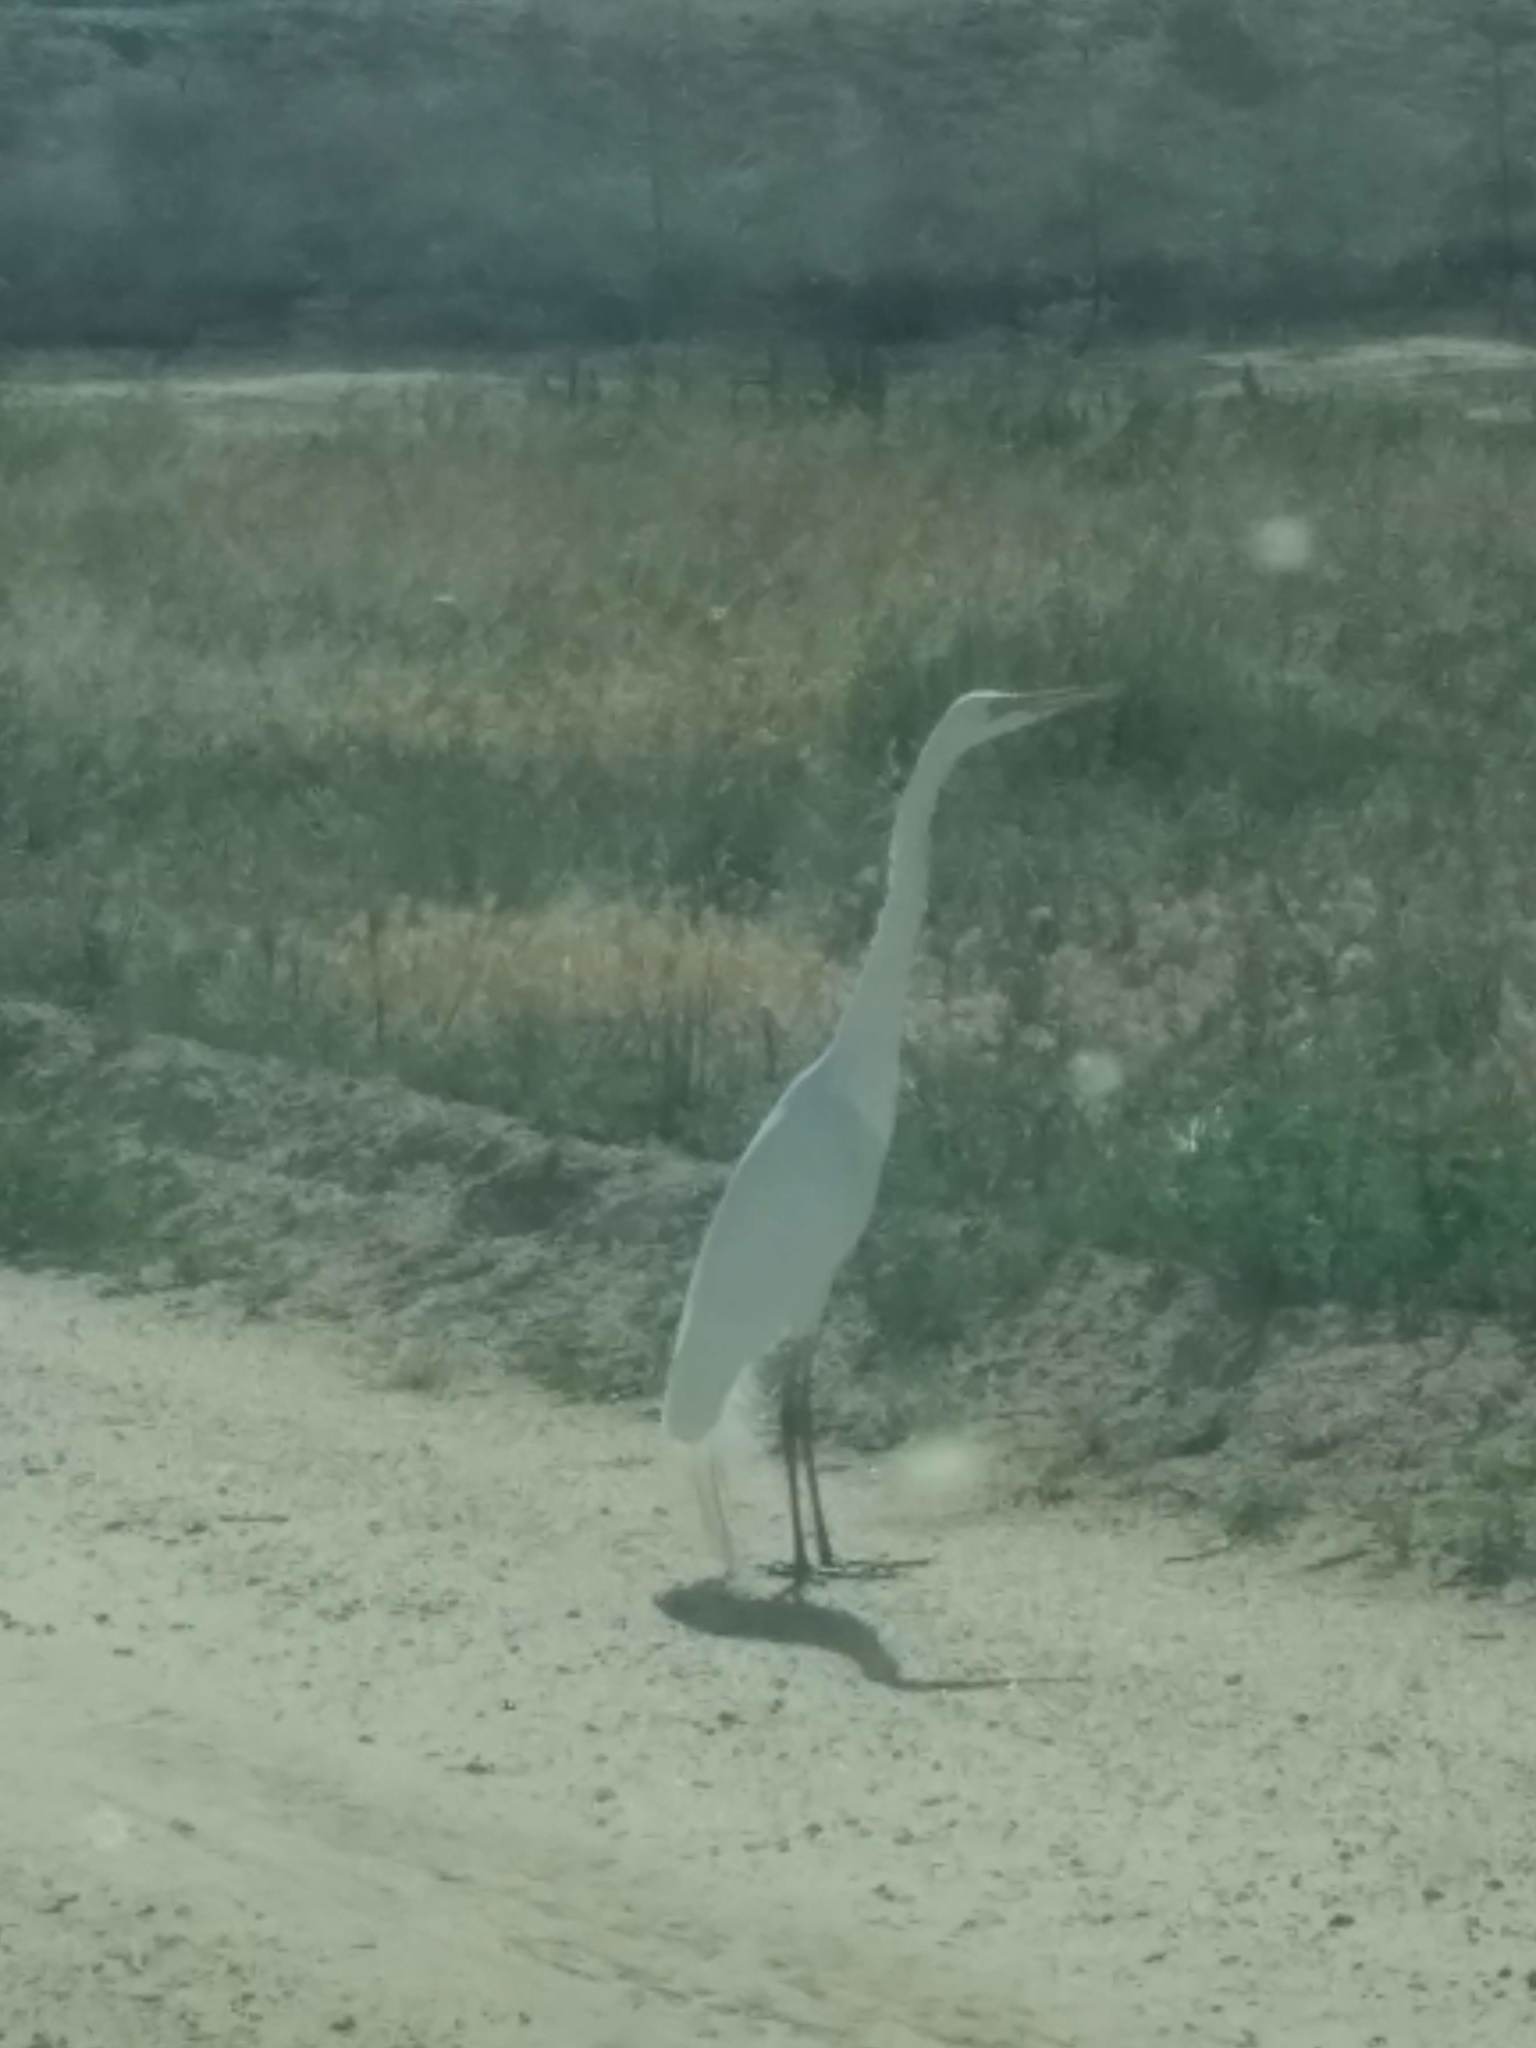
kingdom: Animalia
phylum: Chordata
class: Aves
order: Pelecaniformes
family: Ardeidae
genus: Ardea
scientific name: Ardea alba
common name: Great egret
